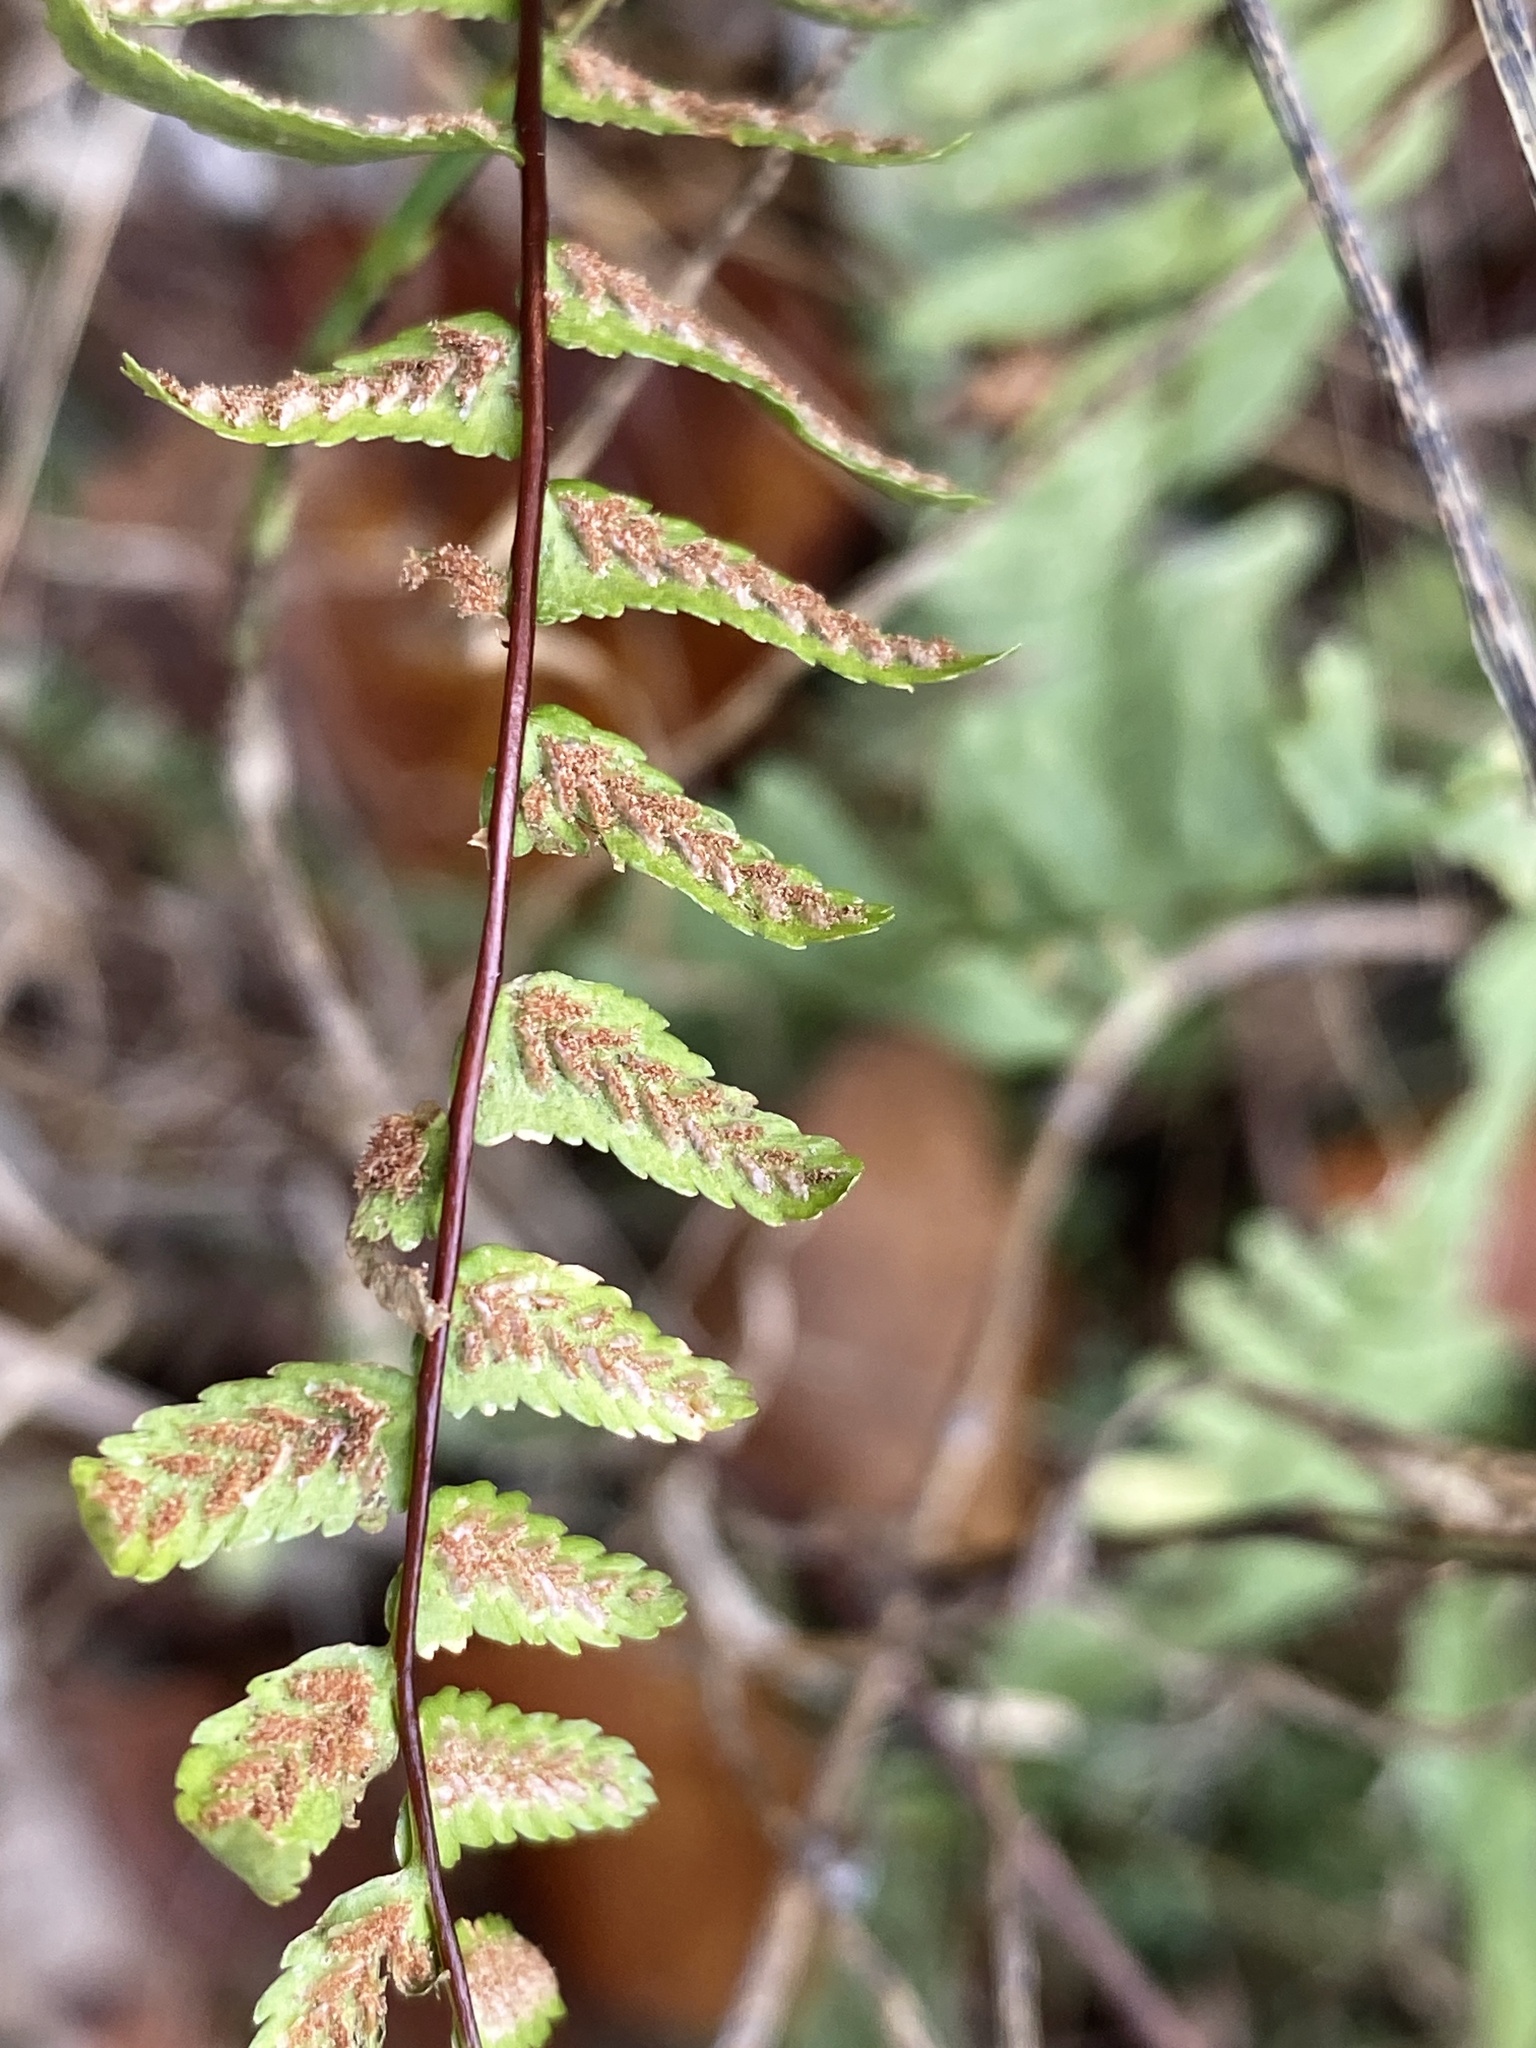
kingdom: Plantae
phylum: Tracheophyta
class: Polypodiopsida
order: Polypodiales
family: Aspleniaceae
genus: Asplenium
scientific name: Asplenium platyneuron
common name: Ebony spleenwort
